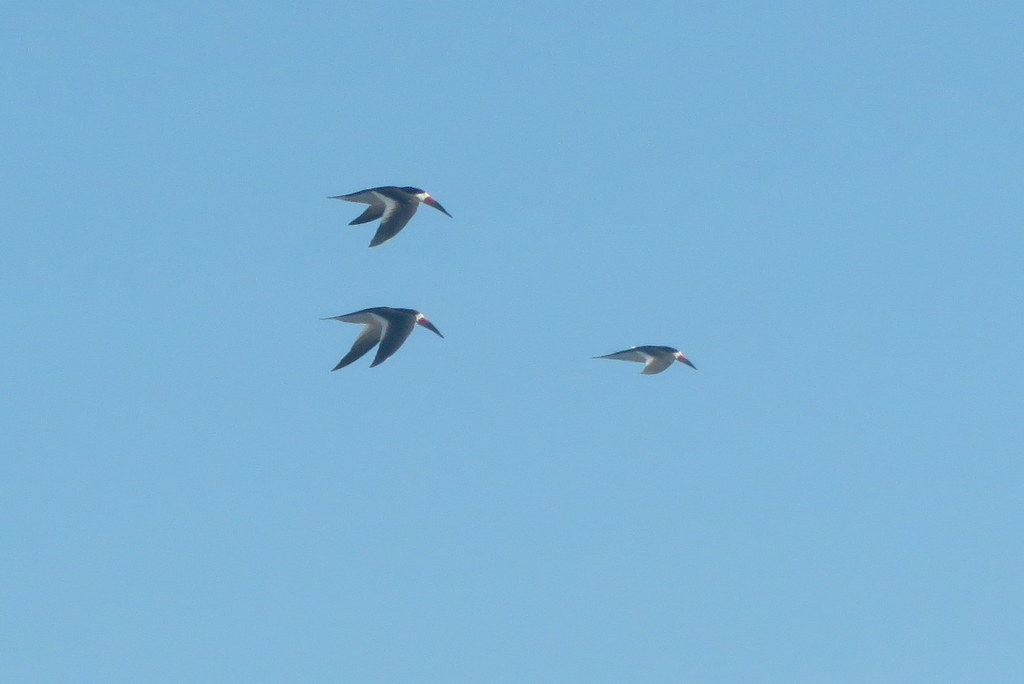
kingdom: Animalia
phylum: Chordata
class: Aves
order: Charadriiformes
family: Laridae
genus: Rynchops
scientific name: Rynchops niger
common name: Black skimmer
